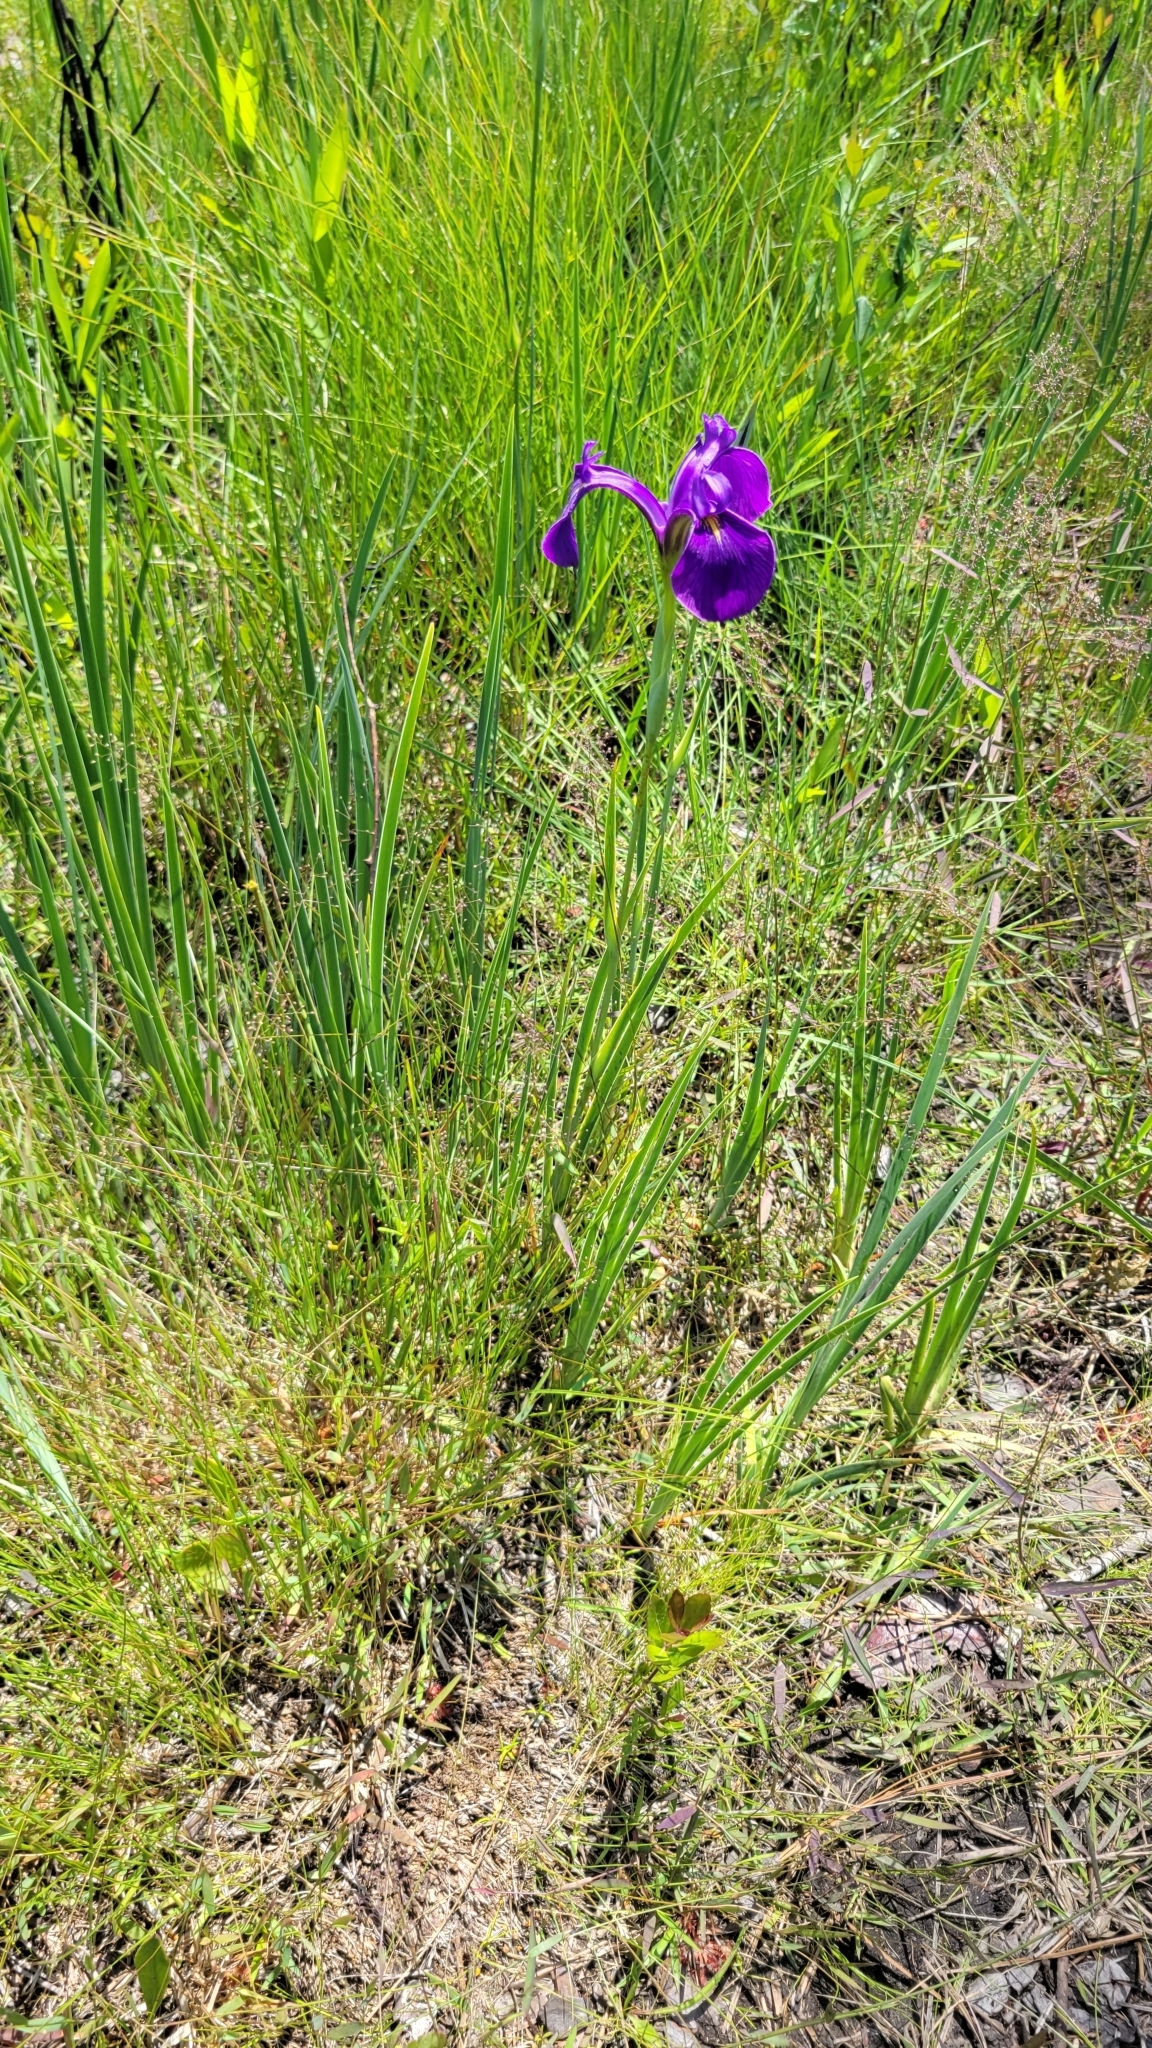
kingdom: Plantae
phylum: Tracheophyta
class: Liliopsida
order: Asparagales
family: Iridaceae
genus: Iris
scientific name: Iris tridentata
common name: Savannah iris
